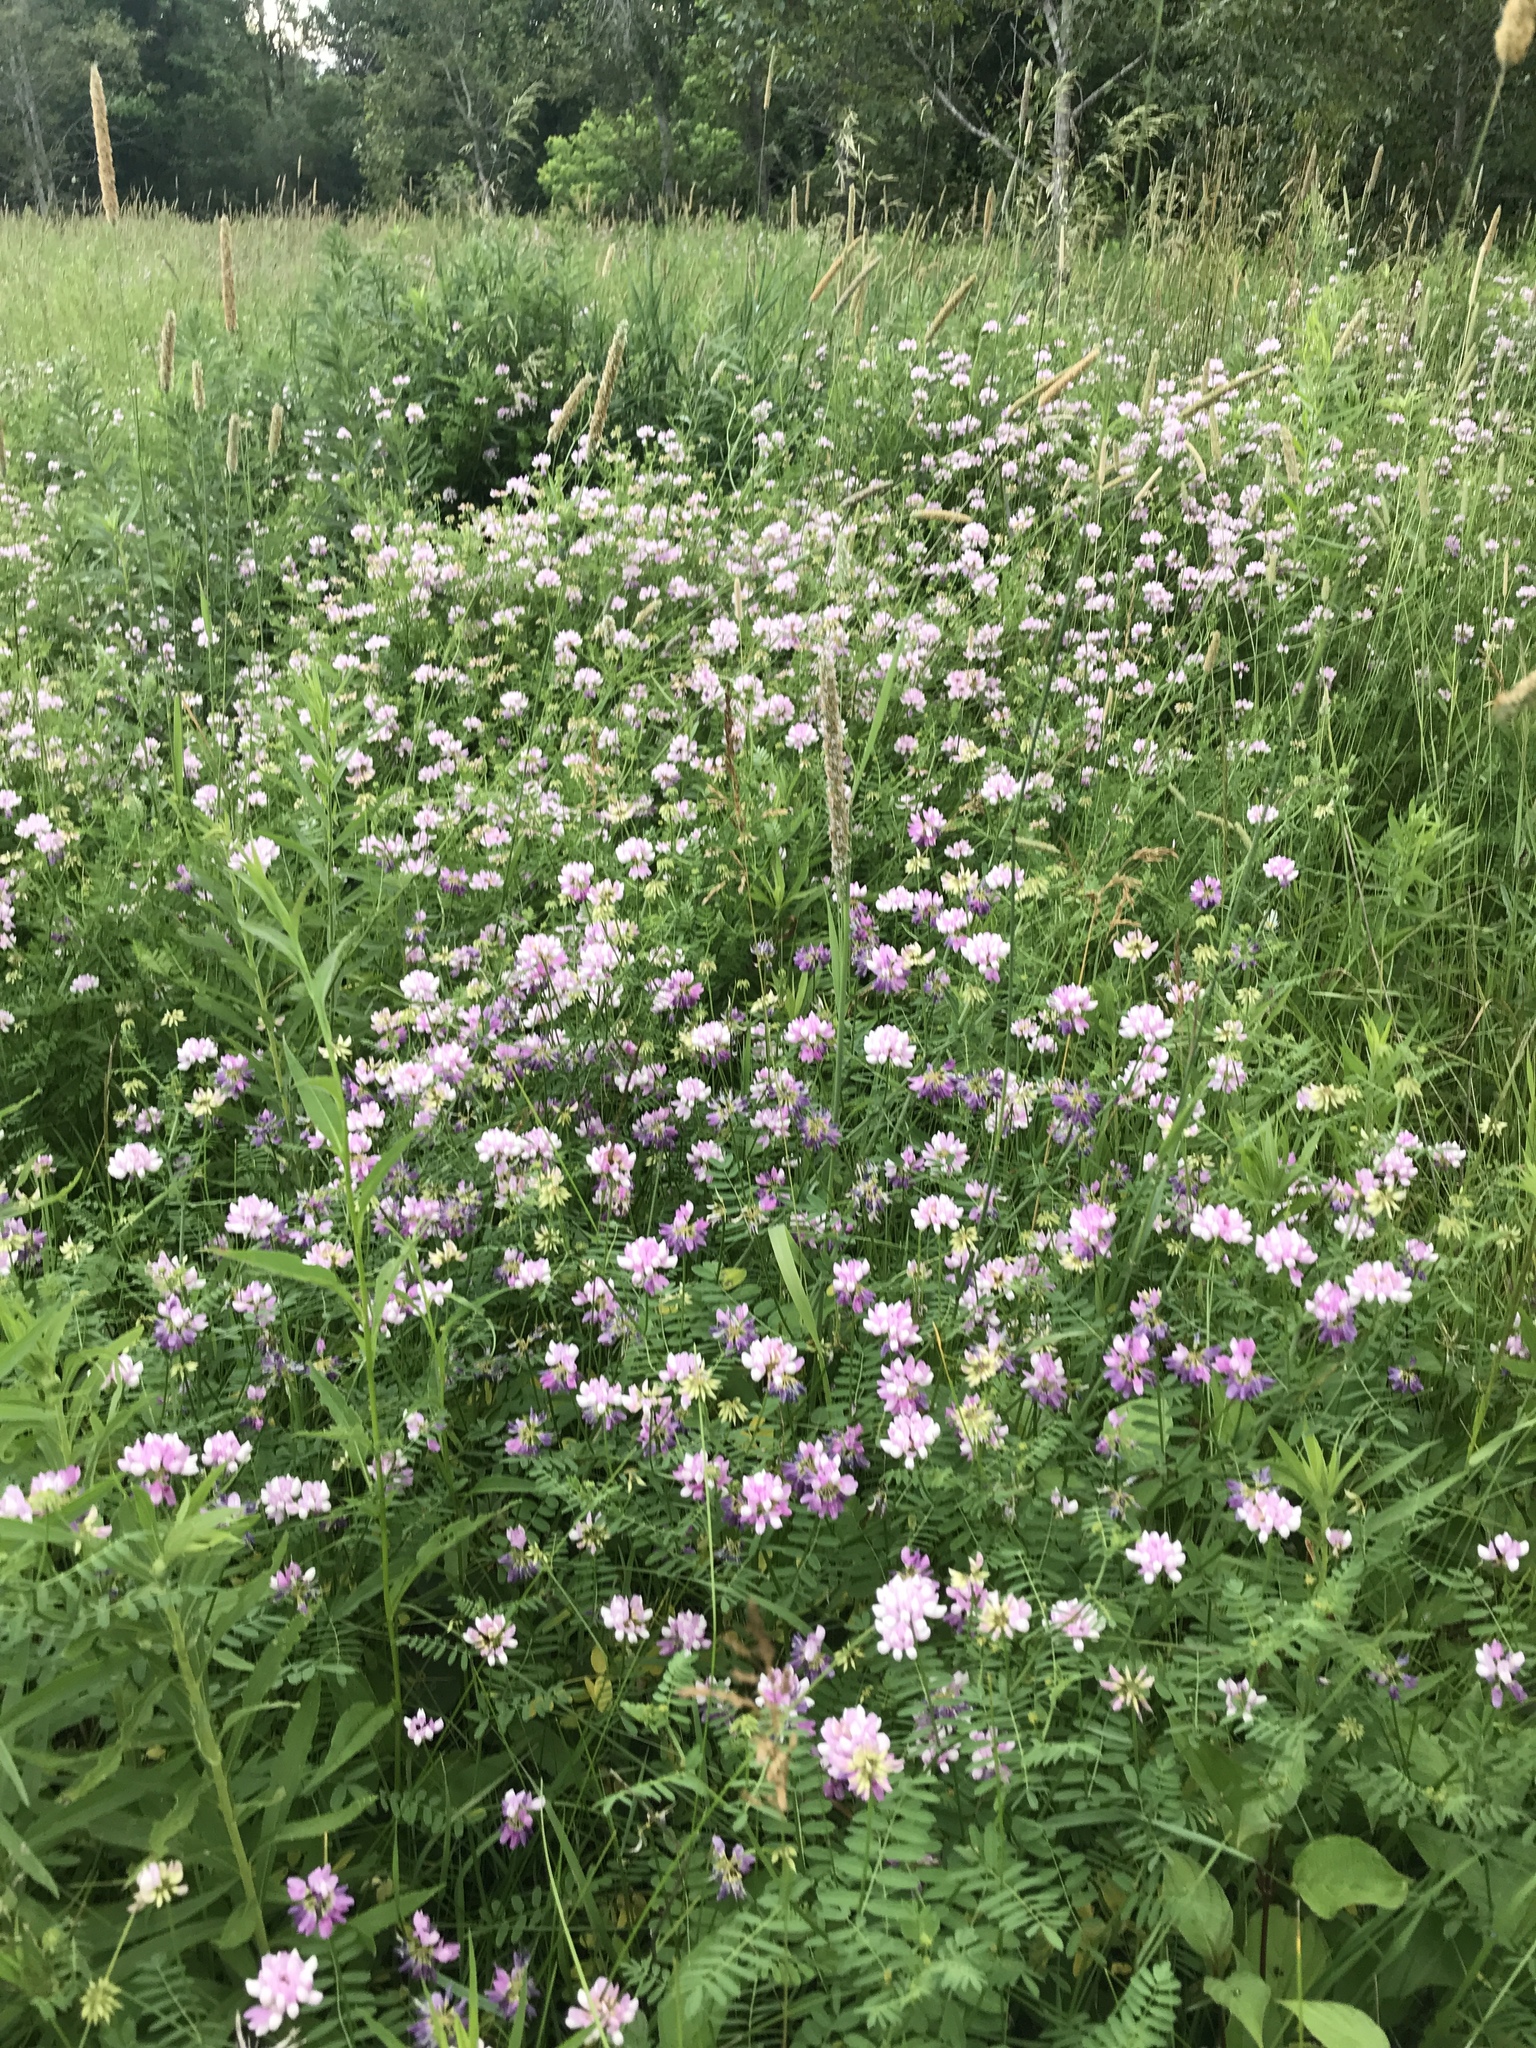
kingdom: Plantae
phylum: Tracheophyta
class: Magnoliopsida
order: Fabales
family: Fabaceae
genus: Coronilla
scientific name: Coronilla varia
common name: Crownvetch
